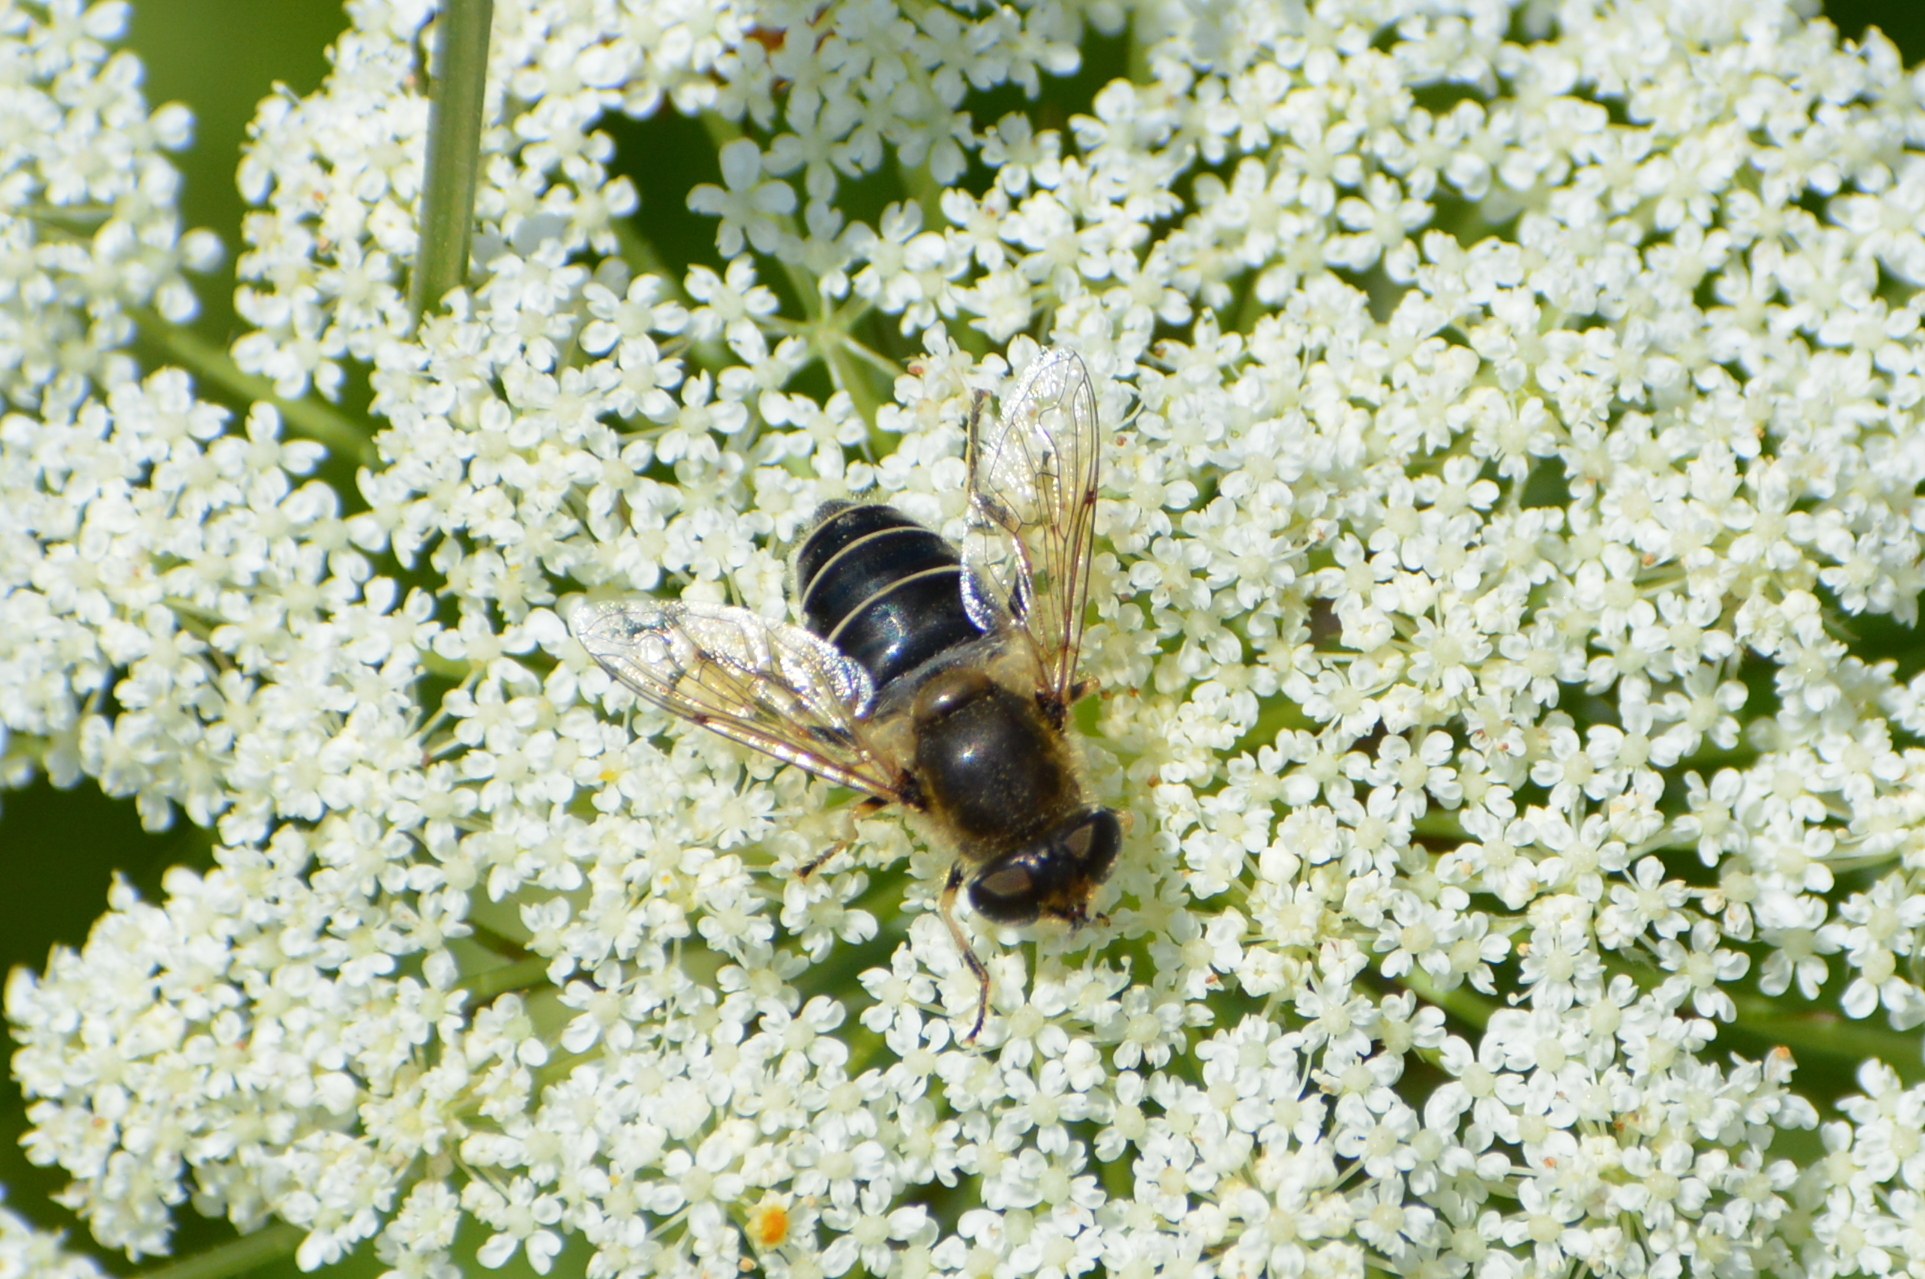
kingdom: Animalia
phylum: Arthropoda
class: Insecta
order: Diptera
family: Syrphidae
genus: Eristalis
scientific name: Eristalis nemorum
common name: Orange-spined drone fly
